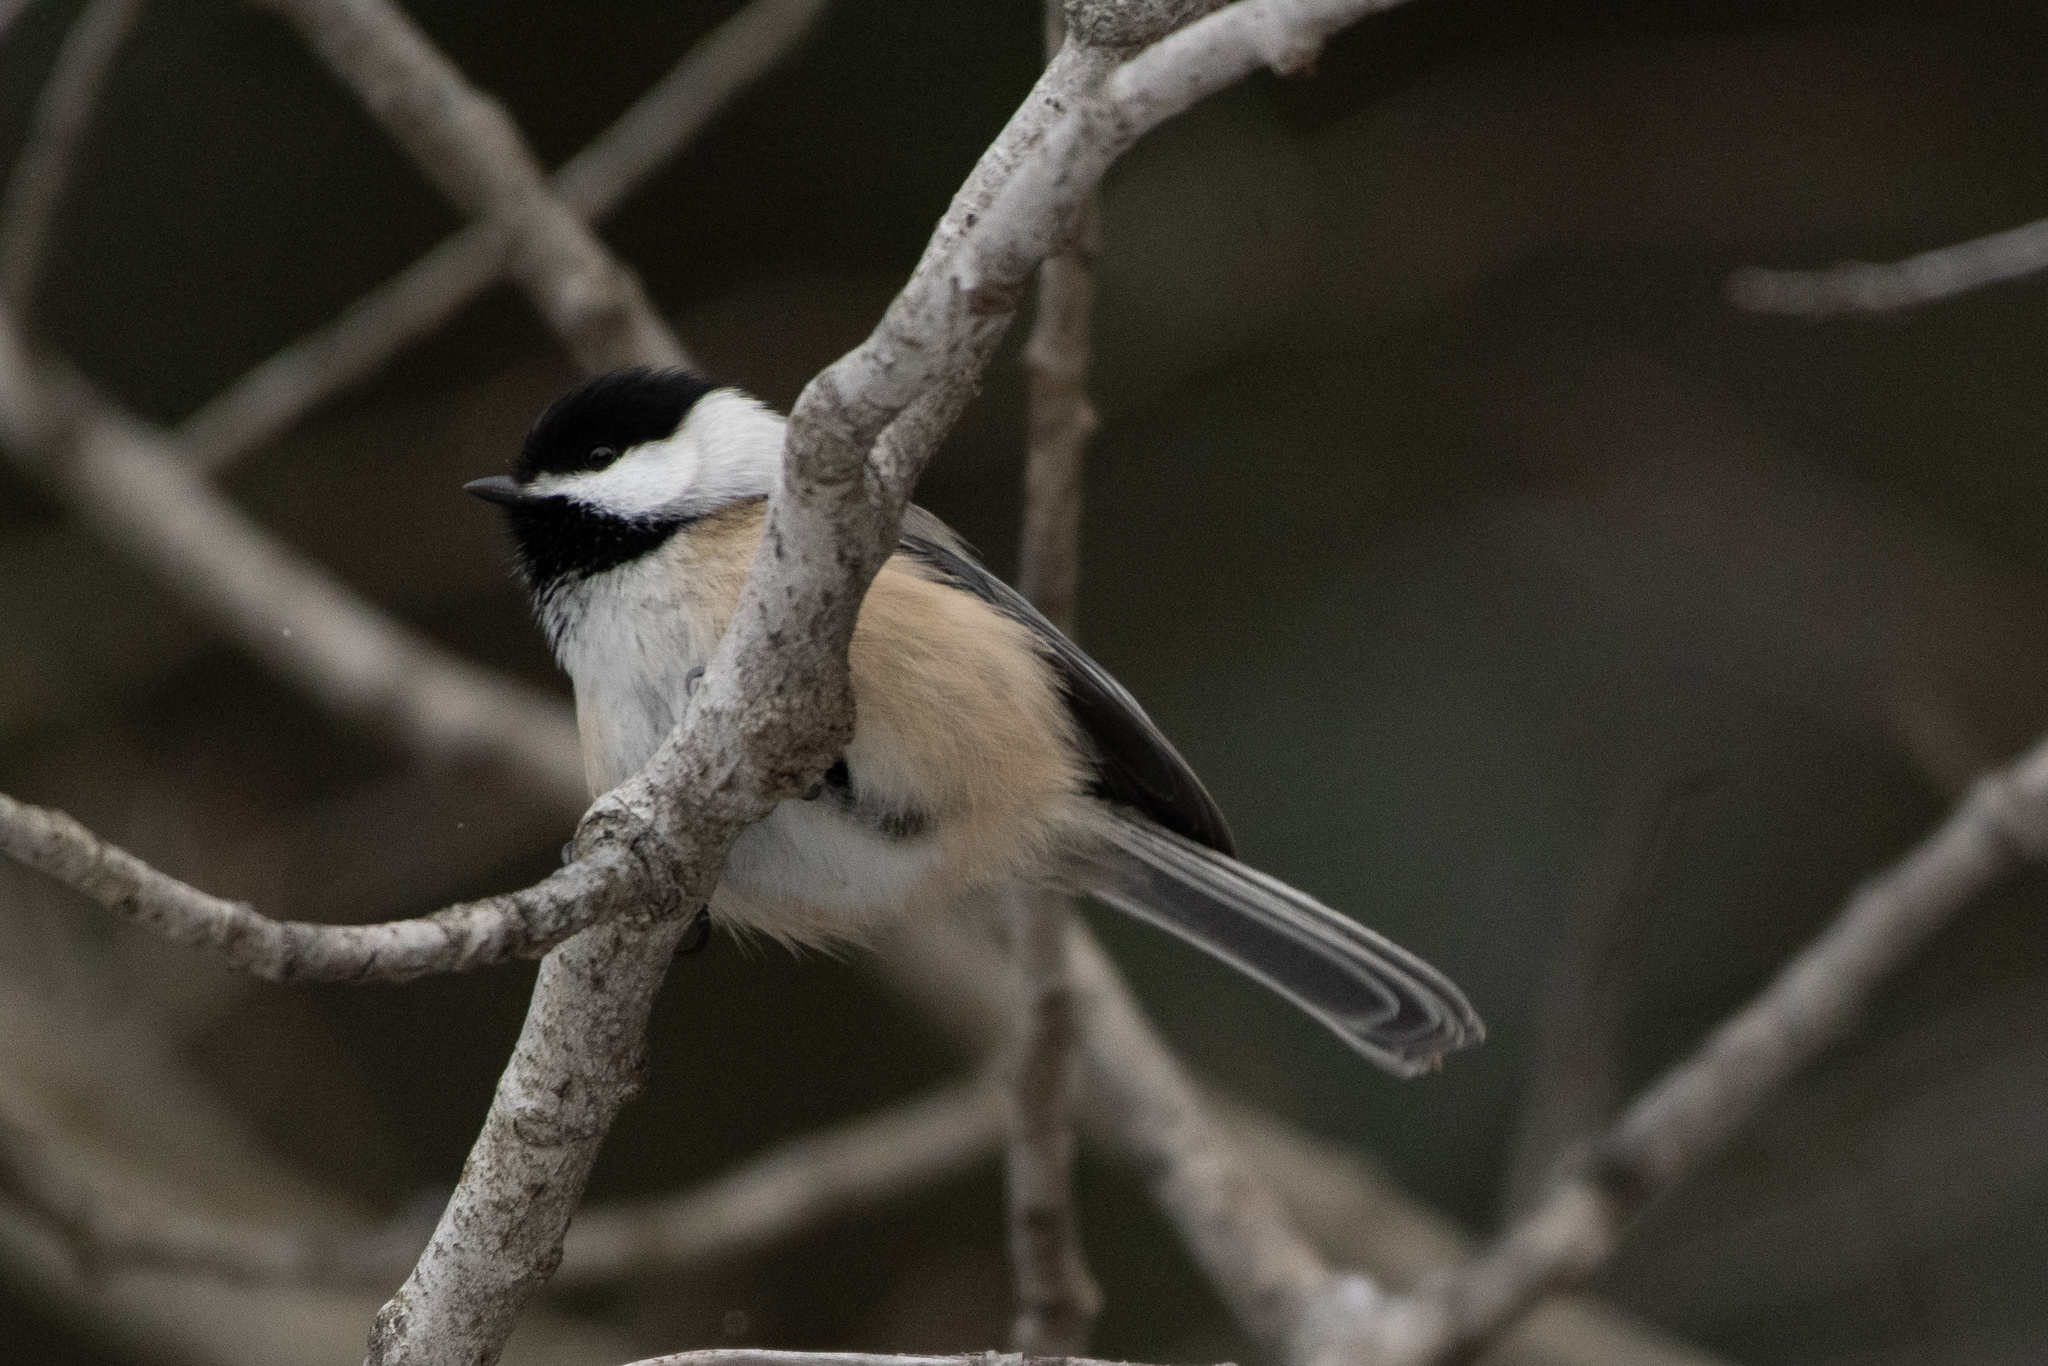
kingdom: Animalia
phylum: Chordata
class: Aves
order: Passeriformes
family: Paridae
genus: Poecile
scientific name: Poecile atricapillus
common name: Black-capped chickadee
